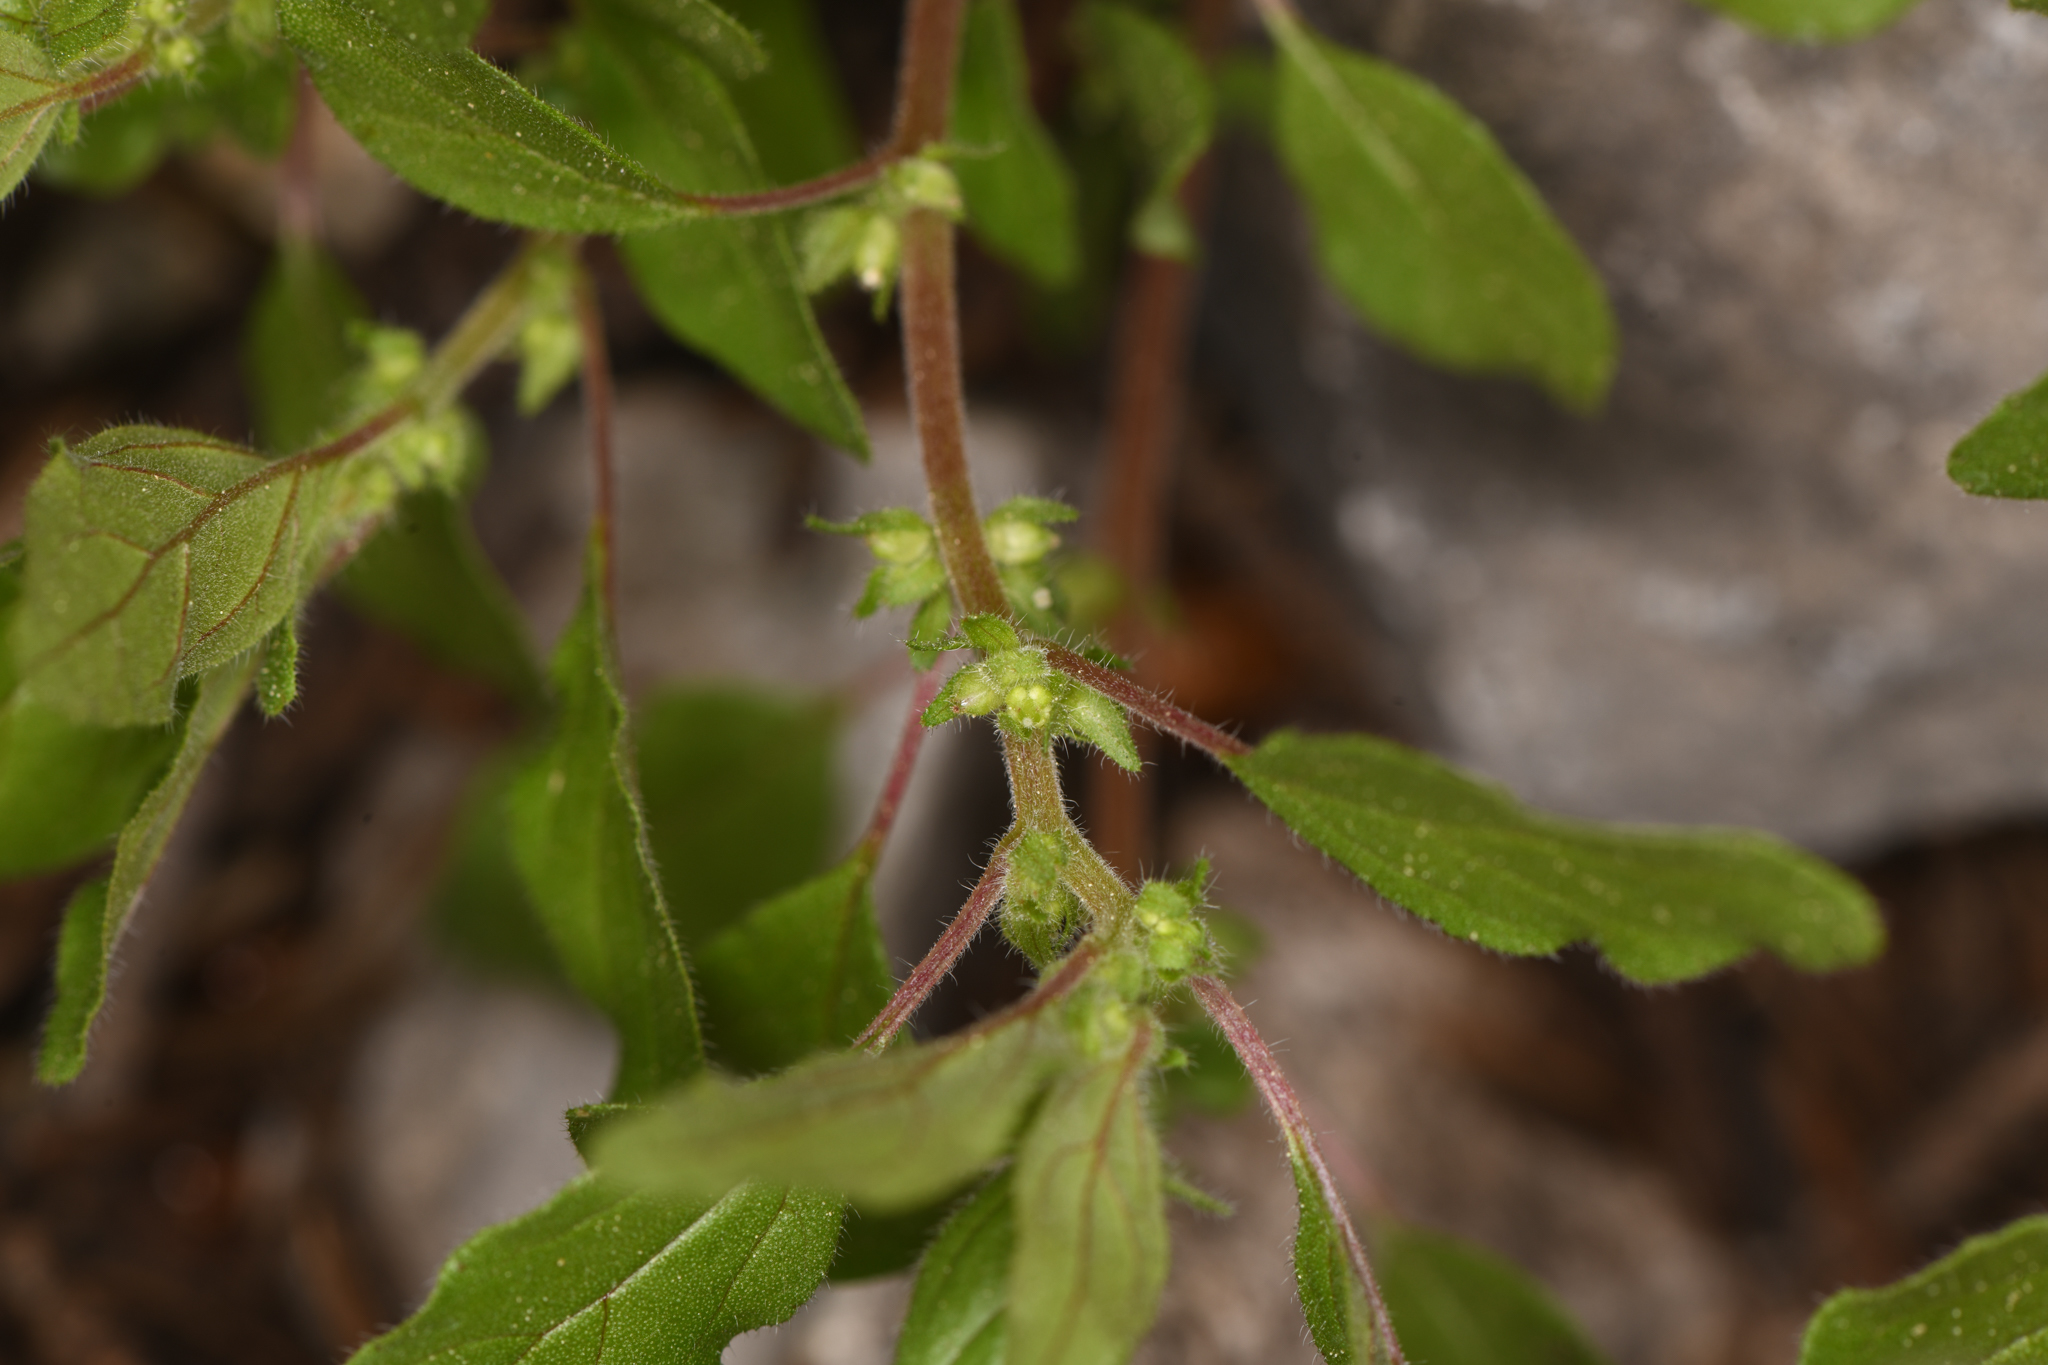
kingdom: Plantae
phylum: Tracheophyta
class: Magnoliopsida
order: Rosales
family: Urticaceae
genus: Parietaria
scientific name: Parietaria pensylvanica
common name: Pennsylvania pellitory
